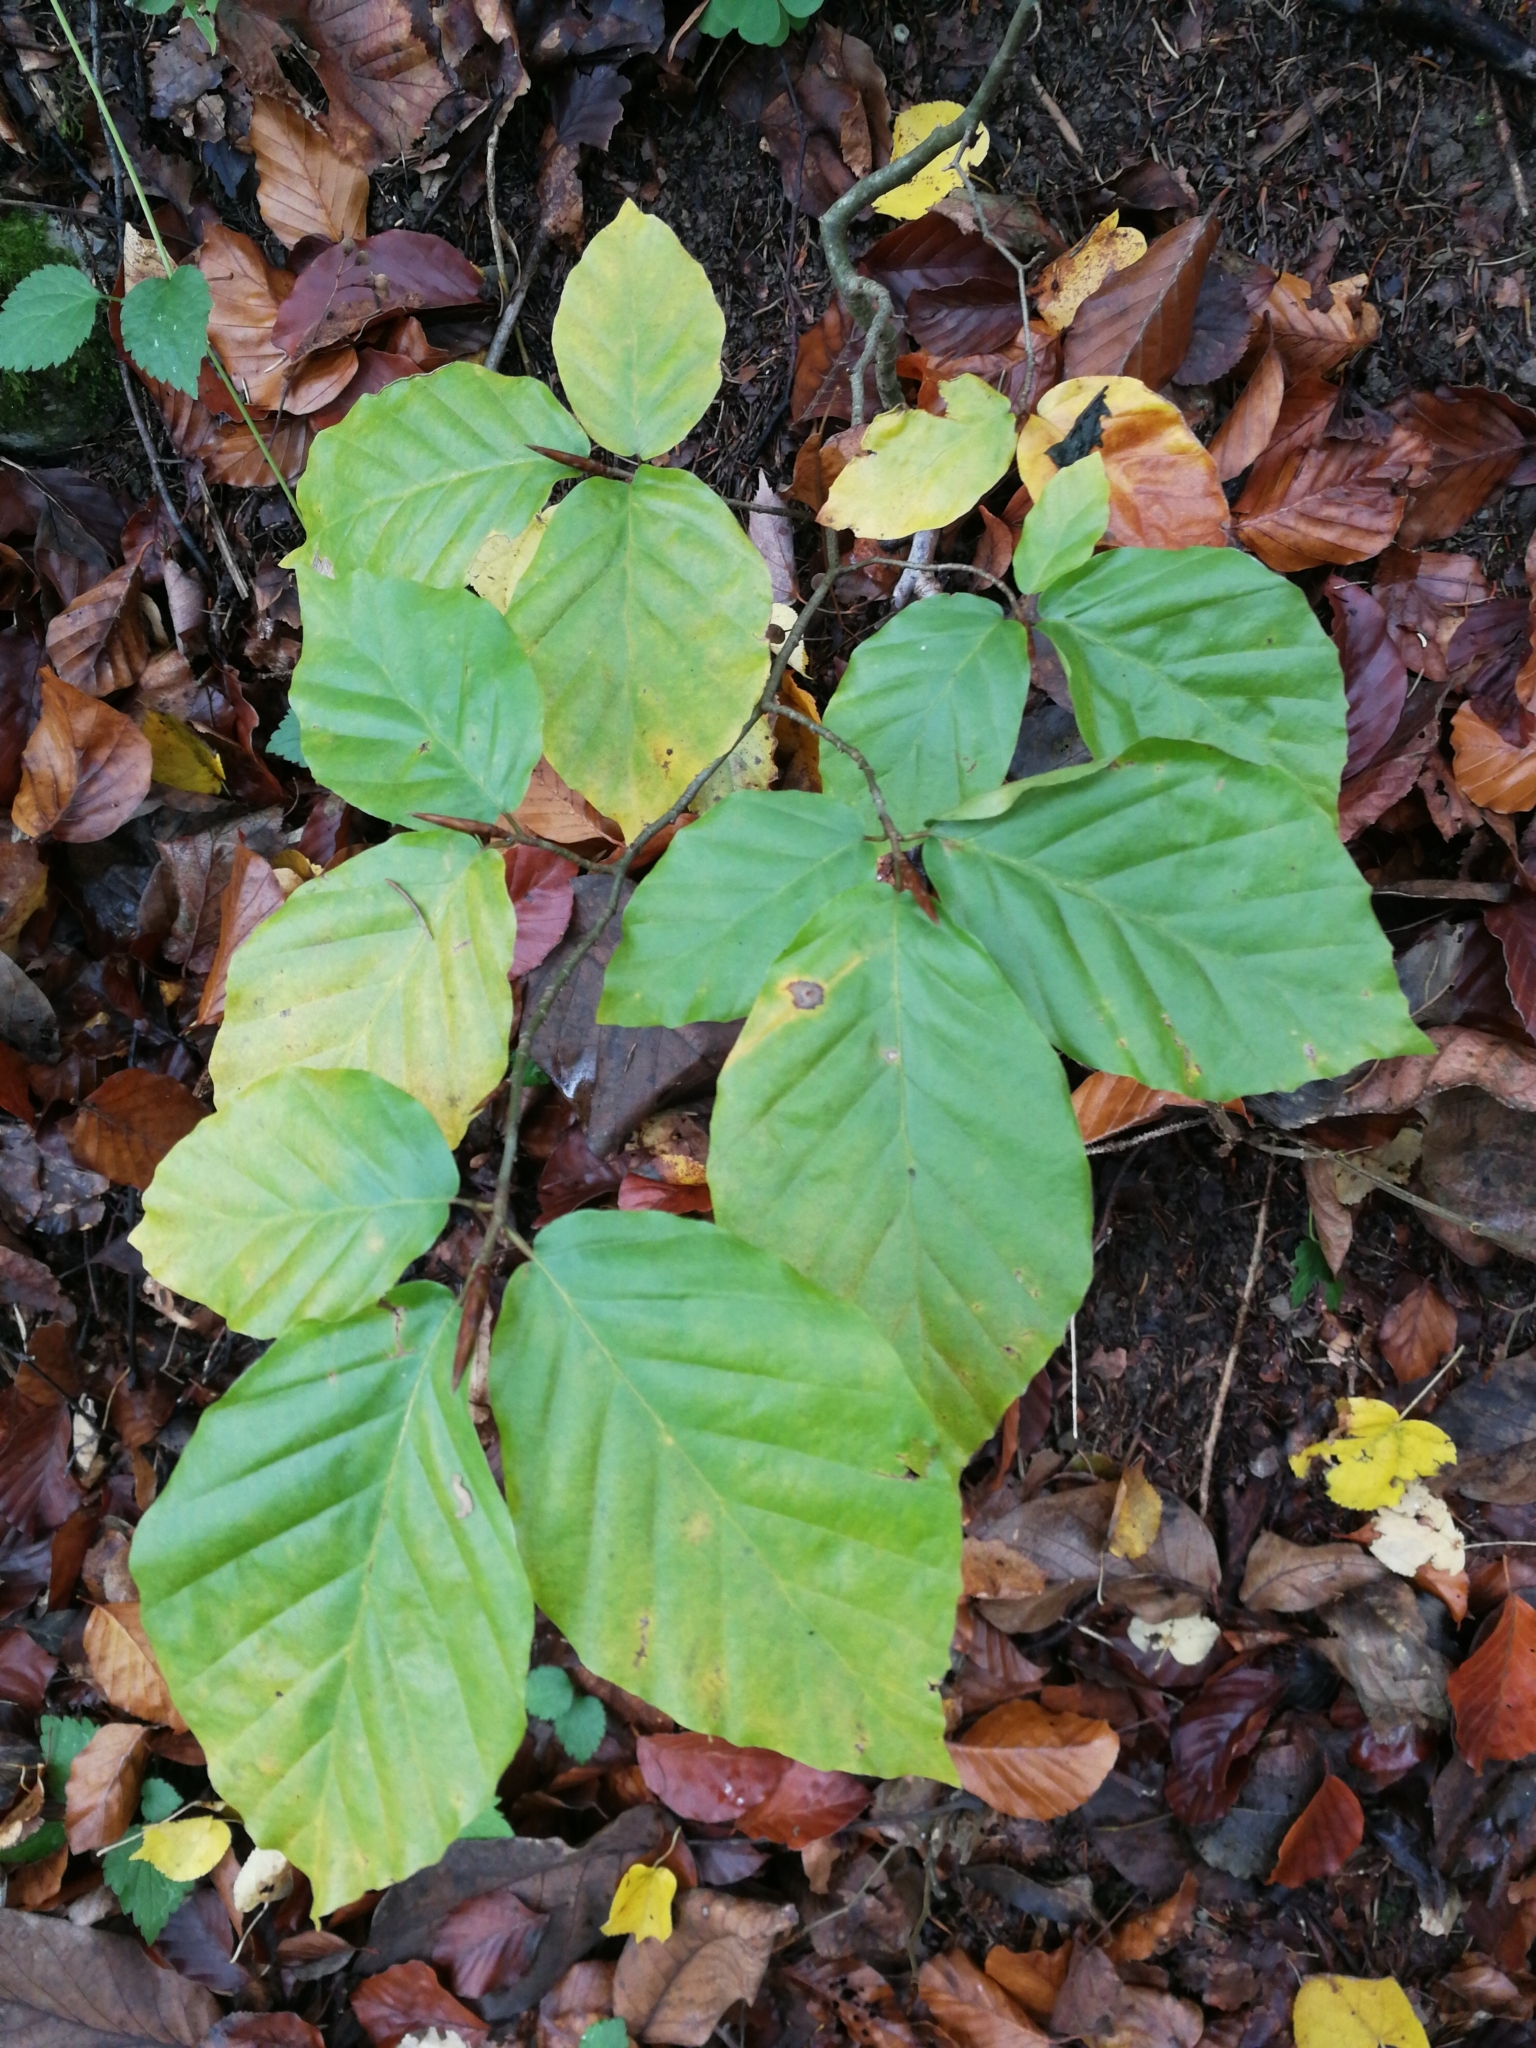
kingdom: Plantae
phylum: Tracheophyta
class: Magnoliopsida
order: Fagales
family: Fagaceae
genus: Fagus
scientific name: Fagus sylvatica
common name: Beech
